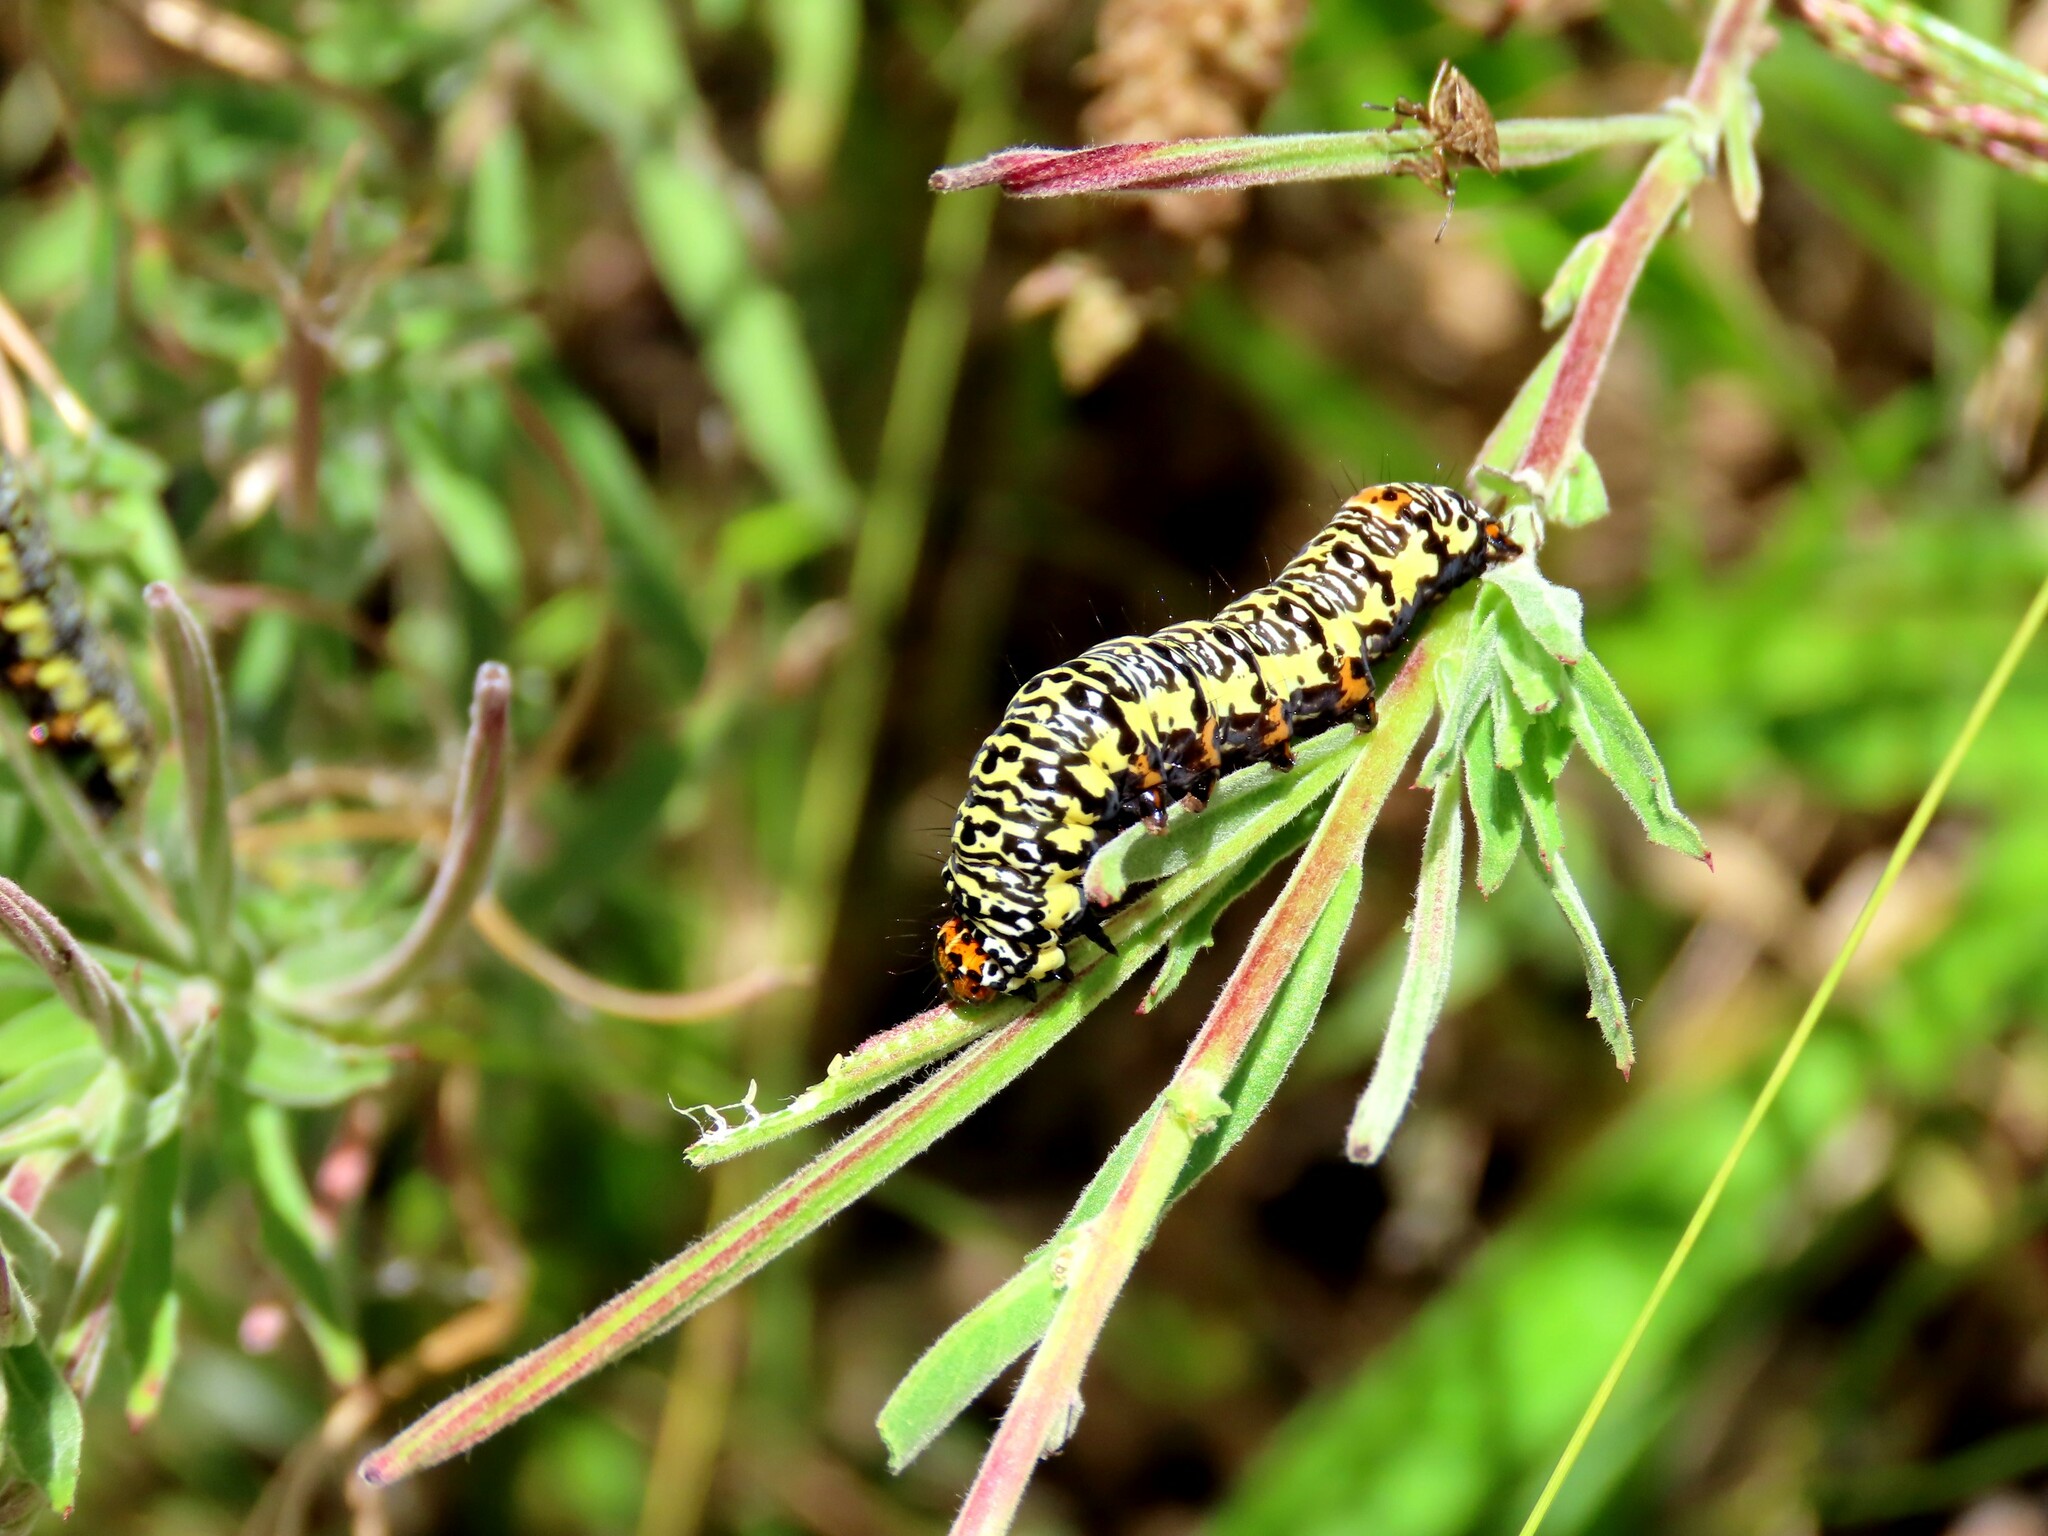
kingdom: Animalia
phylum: Arthropoda
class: Insecta
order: Lepidoptera
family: Noctuidae
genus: Phalaenoides
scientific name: Phalaenoides tristifica
